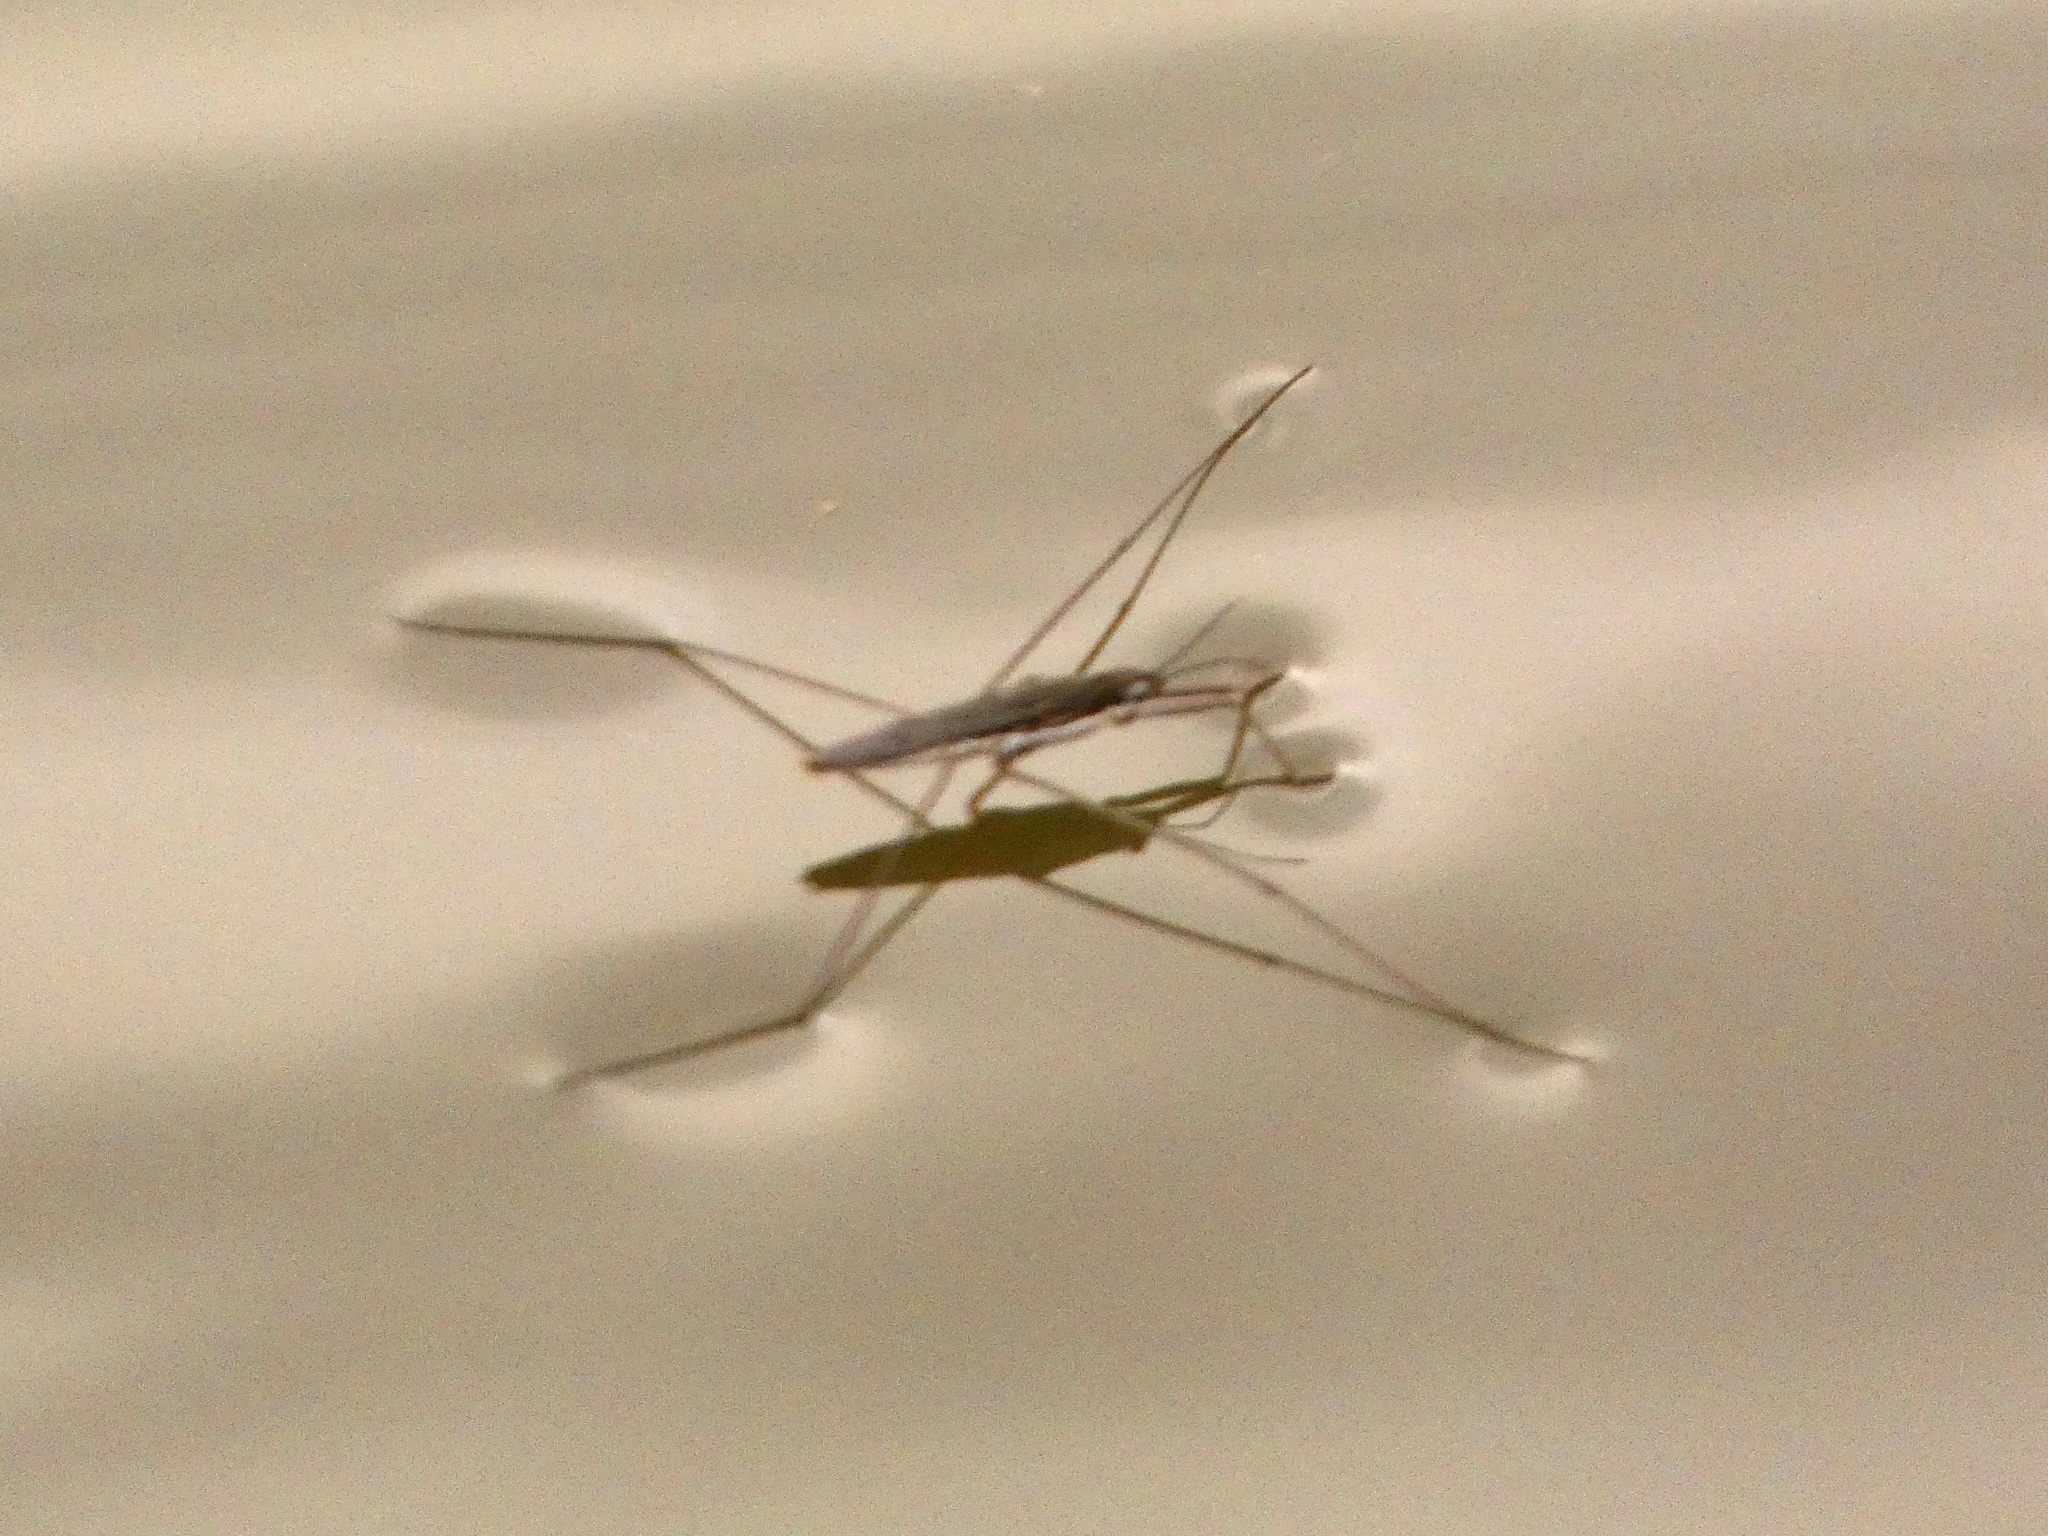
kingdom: Animalia
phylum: Arthropoda
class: Insecta
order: Hemiptera
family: Gerridae
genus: Aquarius
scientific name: Aquarius paludum
